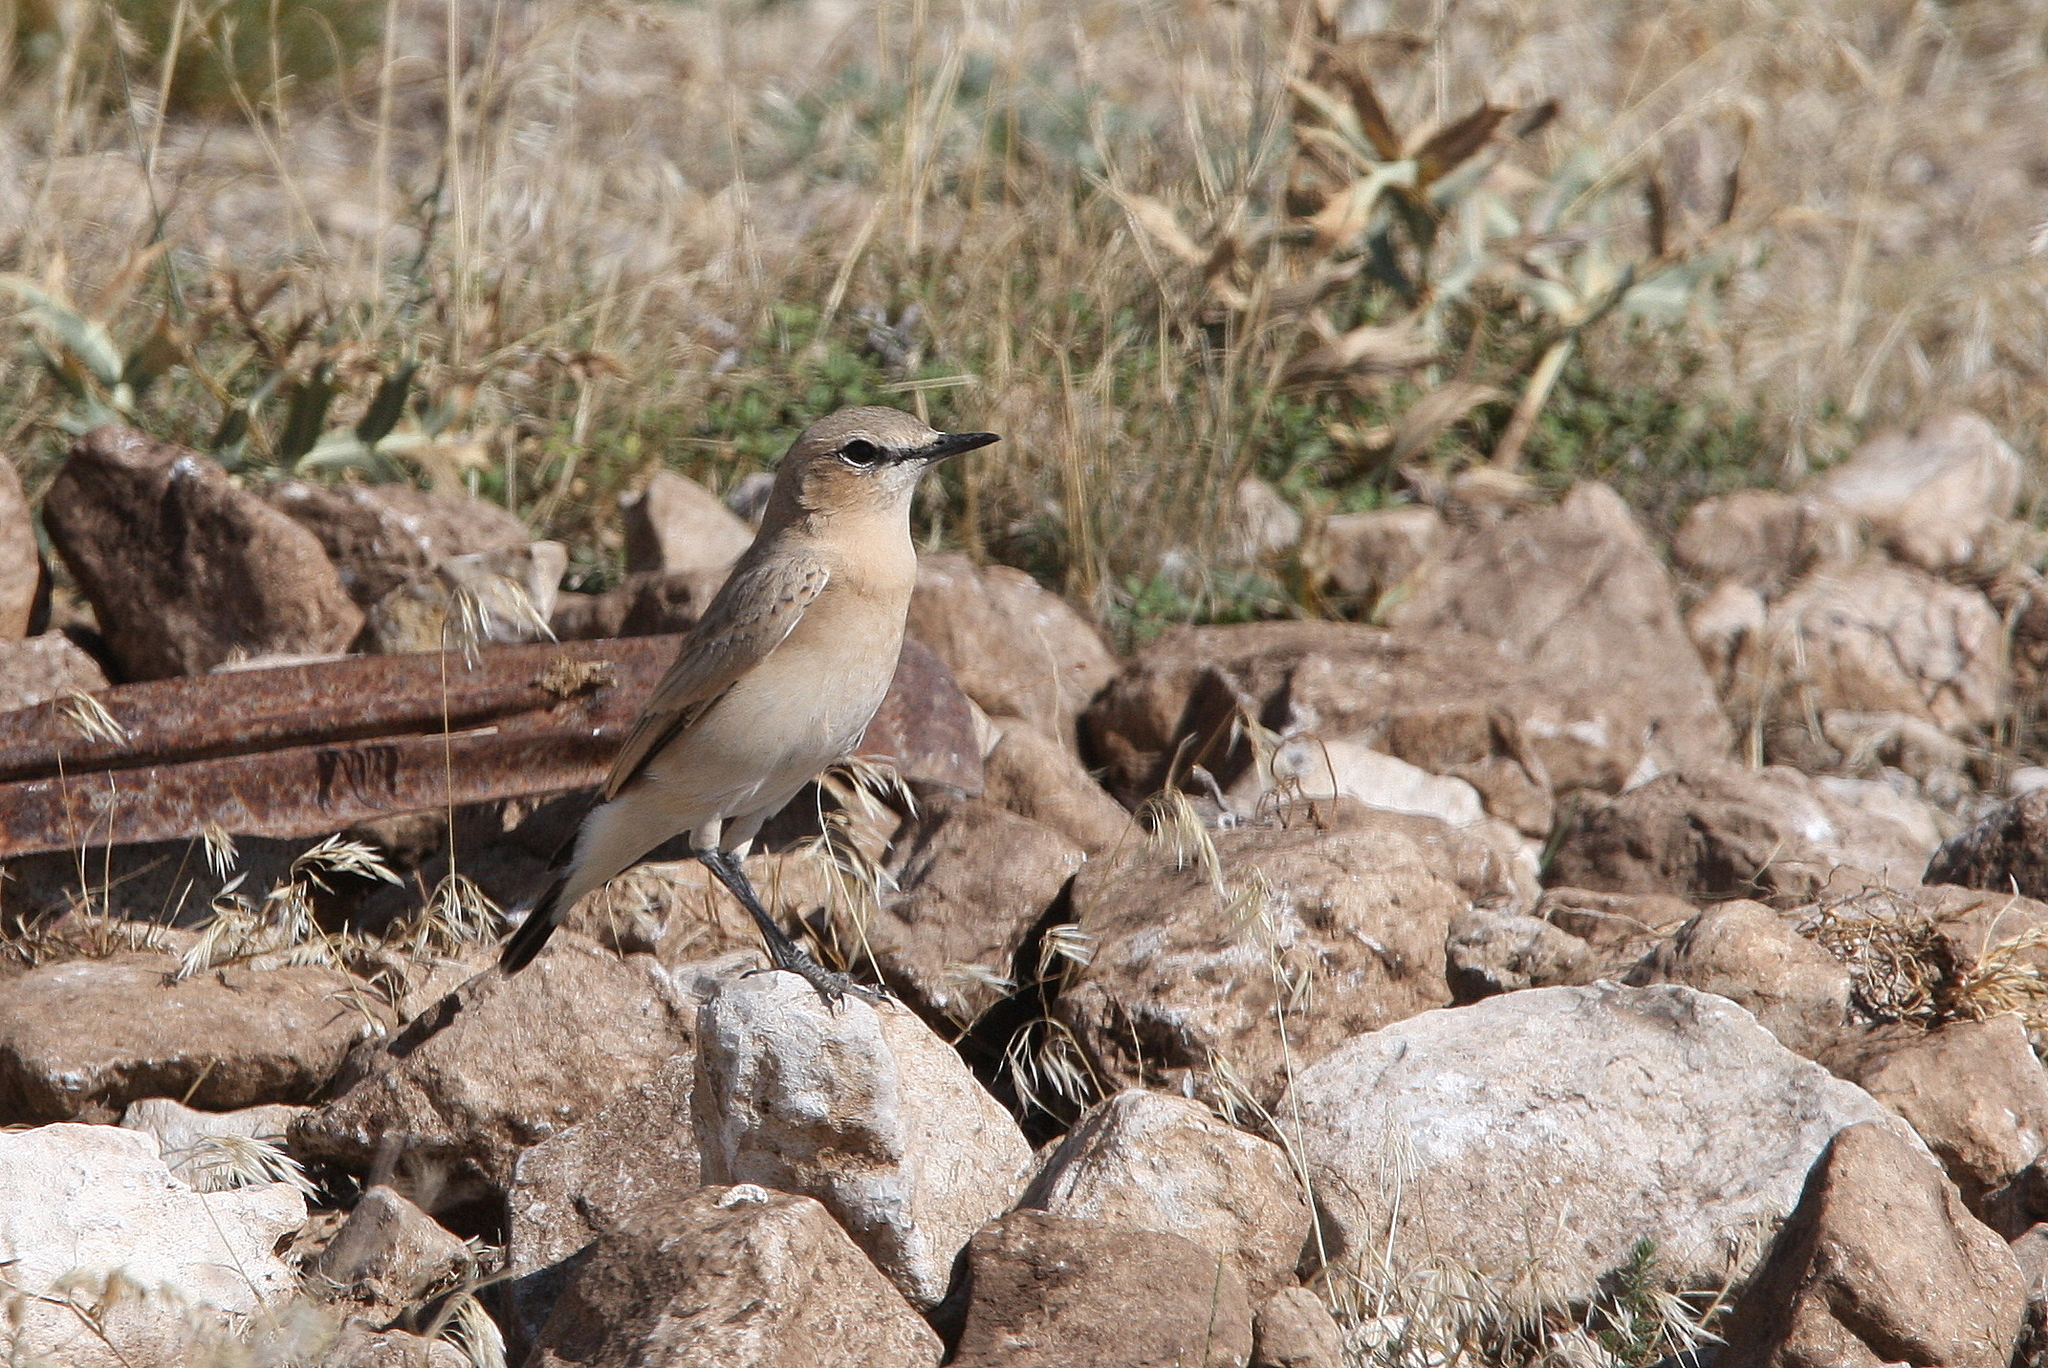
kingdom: Animalia
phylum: Chordata
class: Aves
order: Passeriformes
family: Muscicapidae
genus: Oenanthe
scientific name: Oenanthe isabellina
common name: Isabelline wheatear
